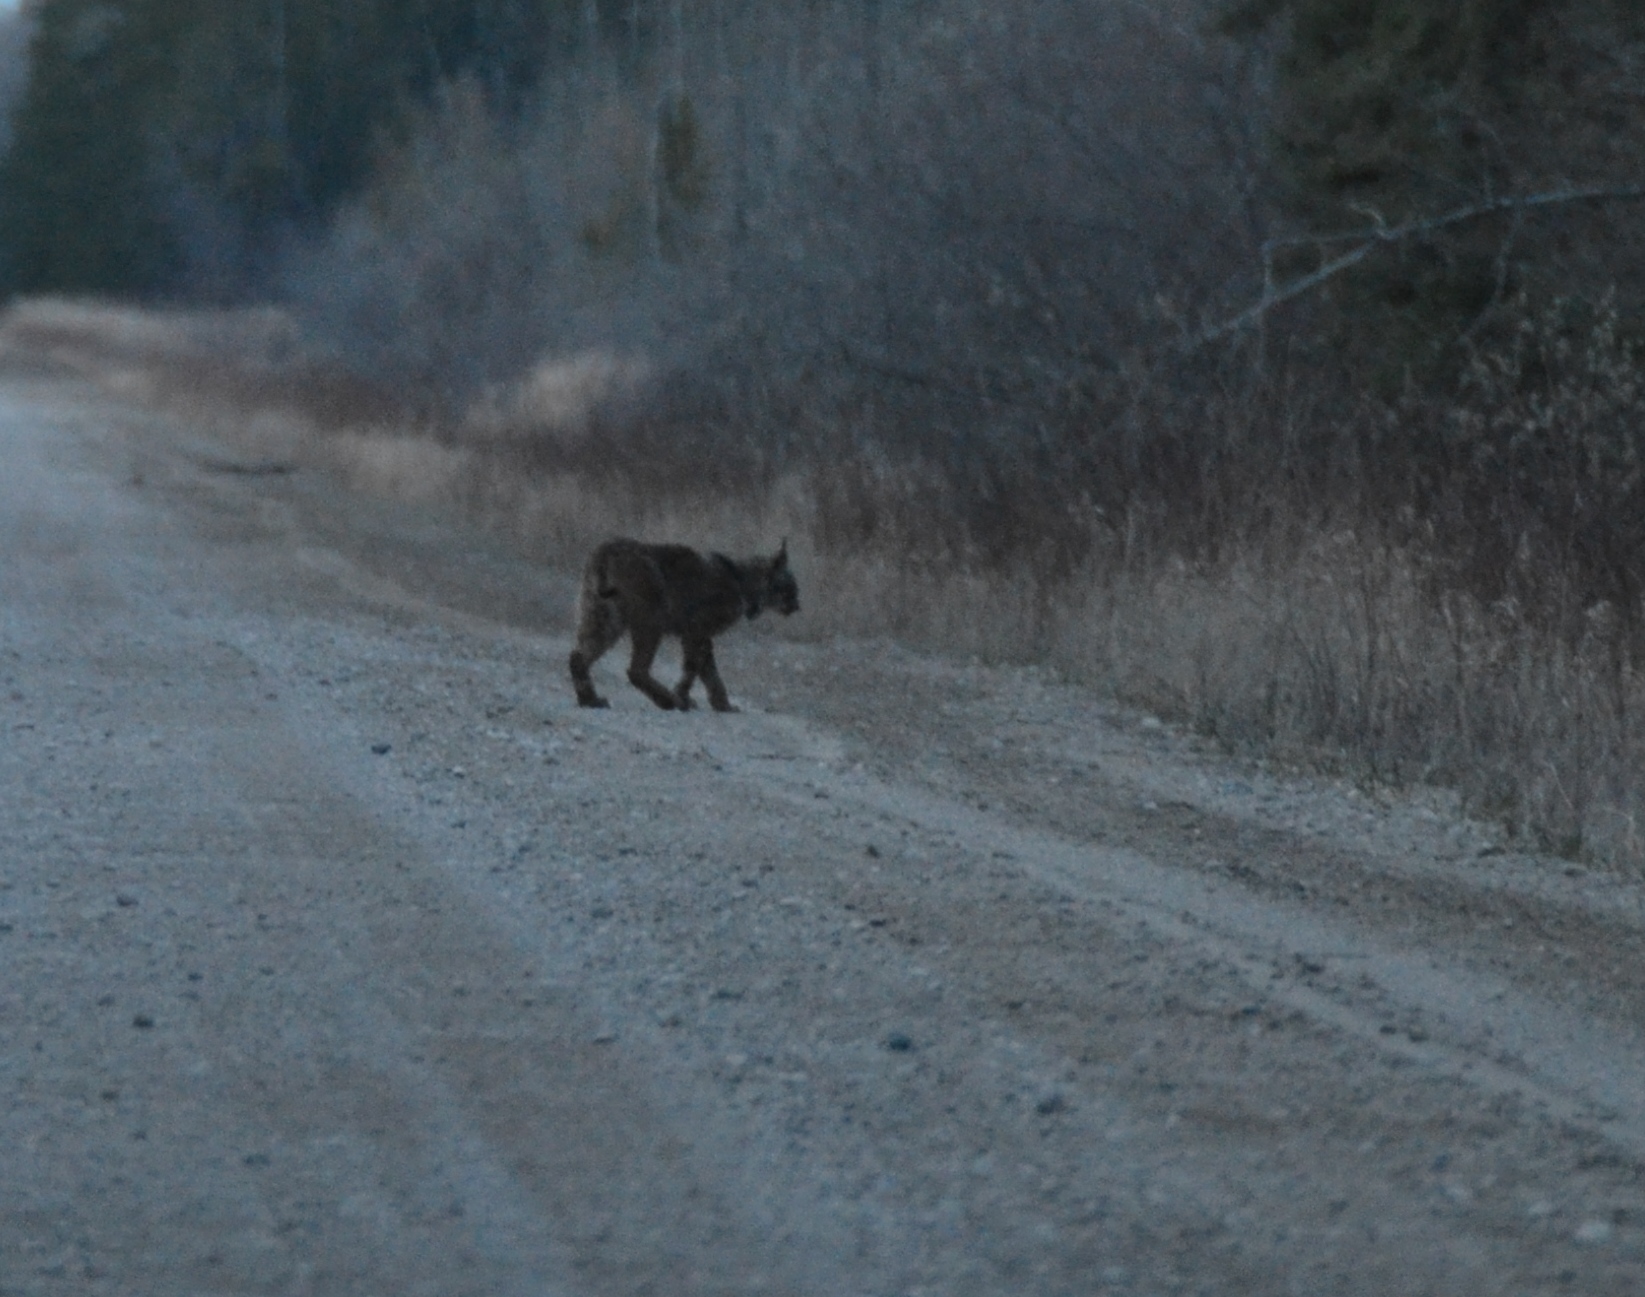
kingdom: Animalia
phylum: Chordata
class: Mammalia
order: Carnivora
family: Felidae
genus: Lynx
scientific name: Lynx canadensis
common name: Canadian lynx
